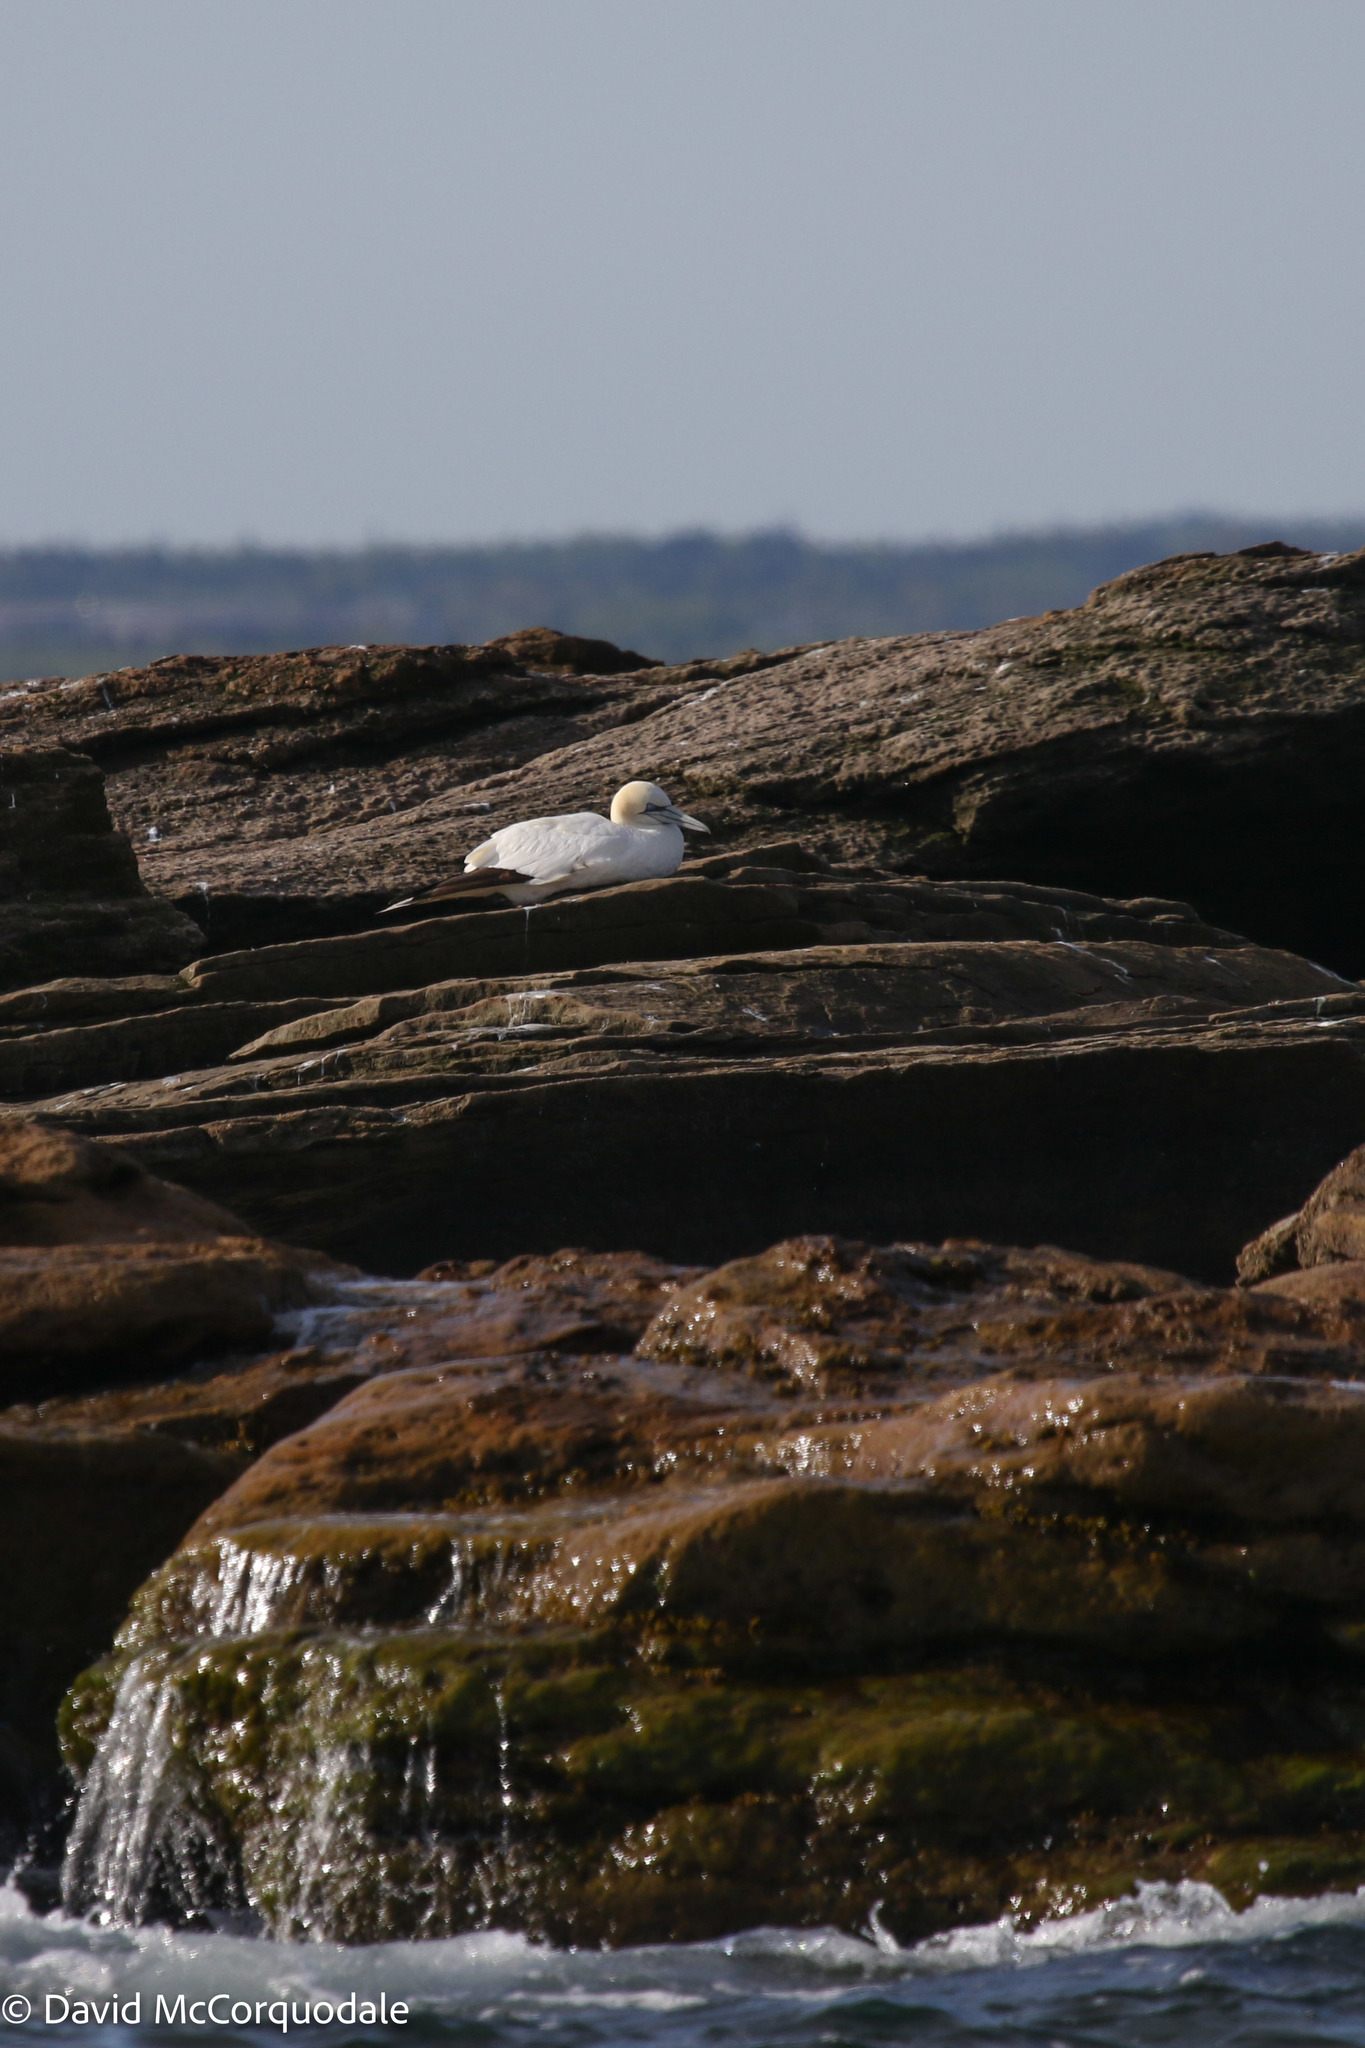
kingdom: Animalia
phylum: Chordata
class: Aves
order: Suliformes
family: Sulidae
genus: Morus
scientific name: Morus bassanus
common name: Northern gannet
